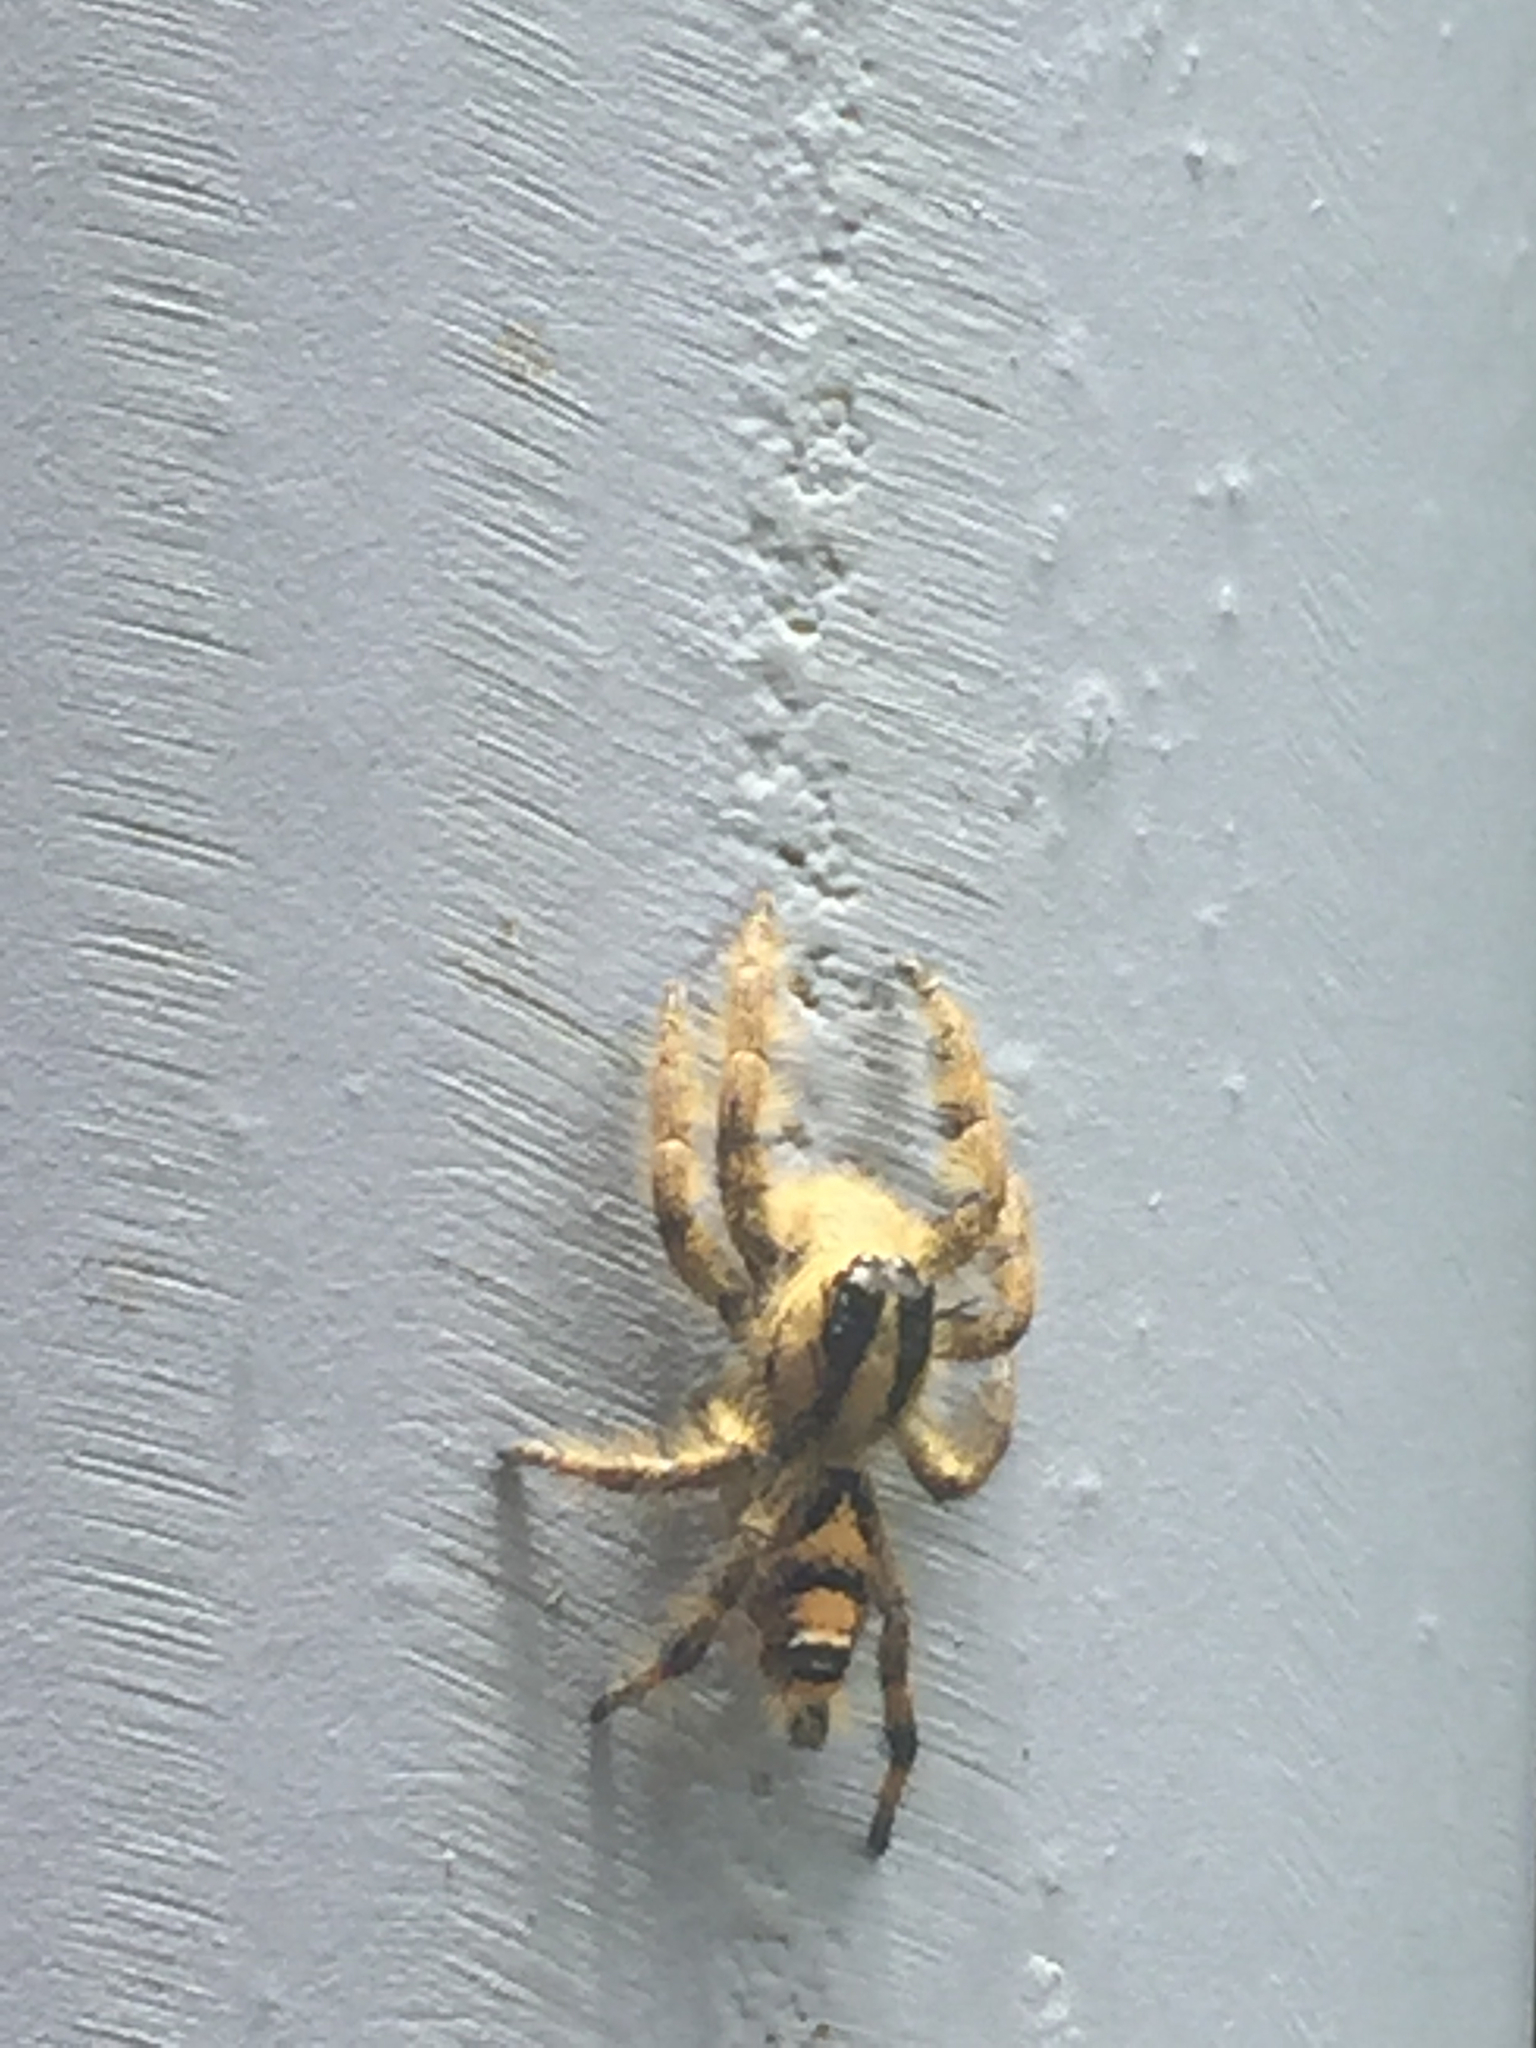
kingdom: Animalia
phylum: Arthropoda
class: Arachnida
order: Araneae
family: Salticidae
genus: Hyllus
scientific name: Hyllus diardi
